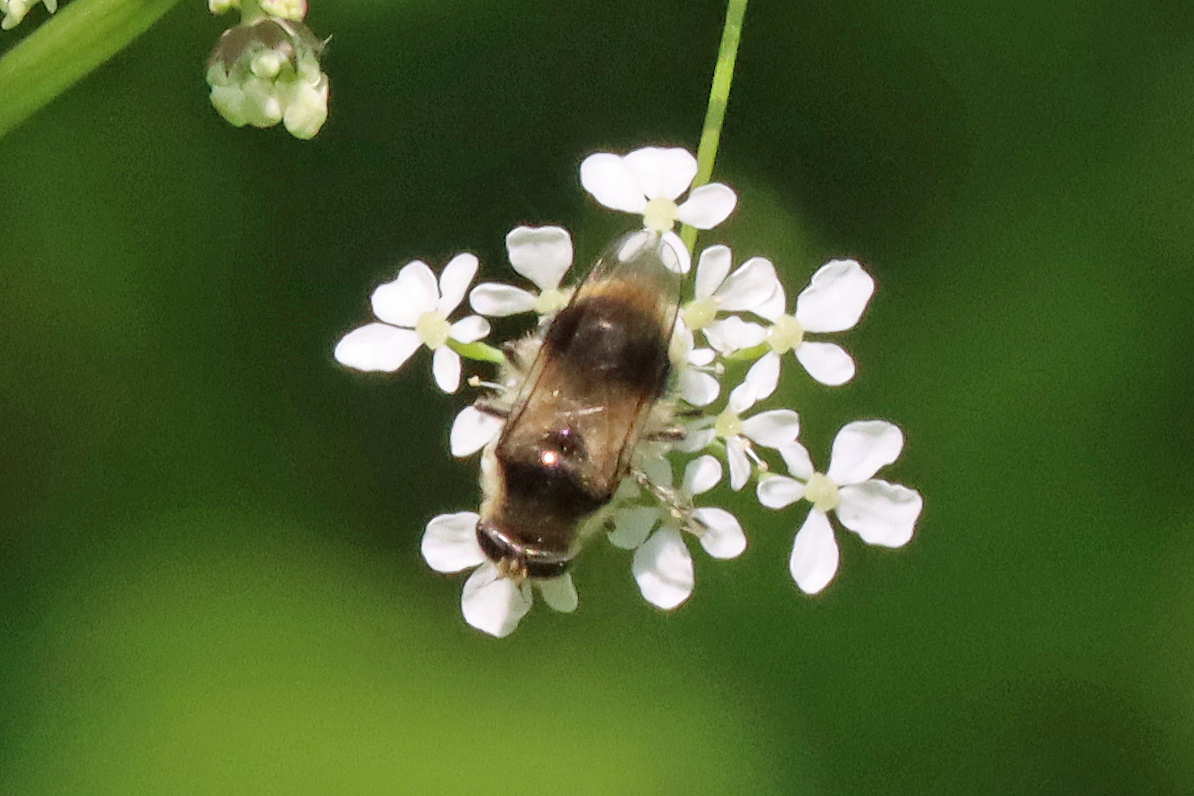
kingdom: Animalia
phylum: Arthropoda
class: Insecta
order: Diptera
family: Syrphidae
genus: Cheilosia
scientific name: Cheilosia illustrata
